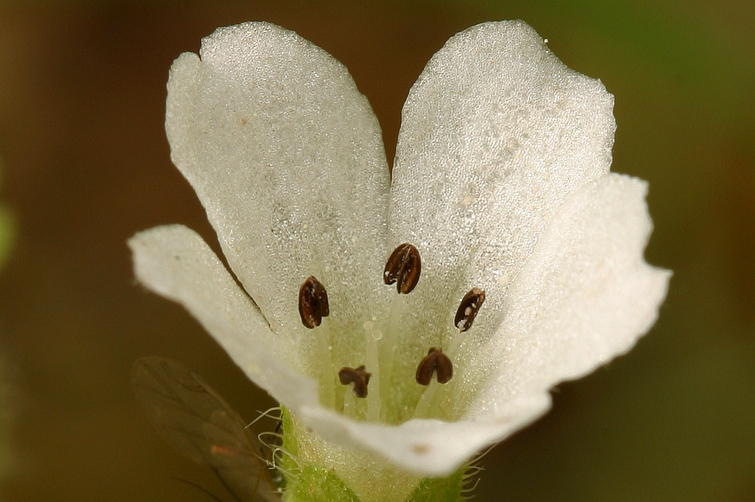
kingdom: Plantae
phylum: Tracheophyta
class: Magnoliopsida
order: Boraginales
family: Hydrophyllaceae
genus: Nemophila
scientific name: Nemophila heterophylla
